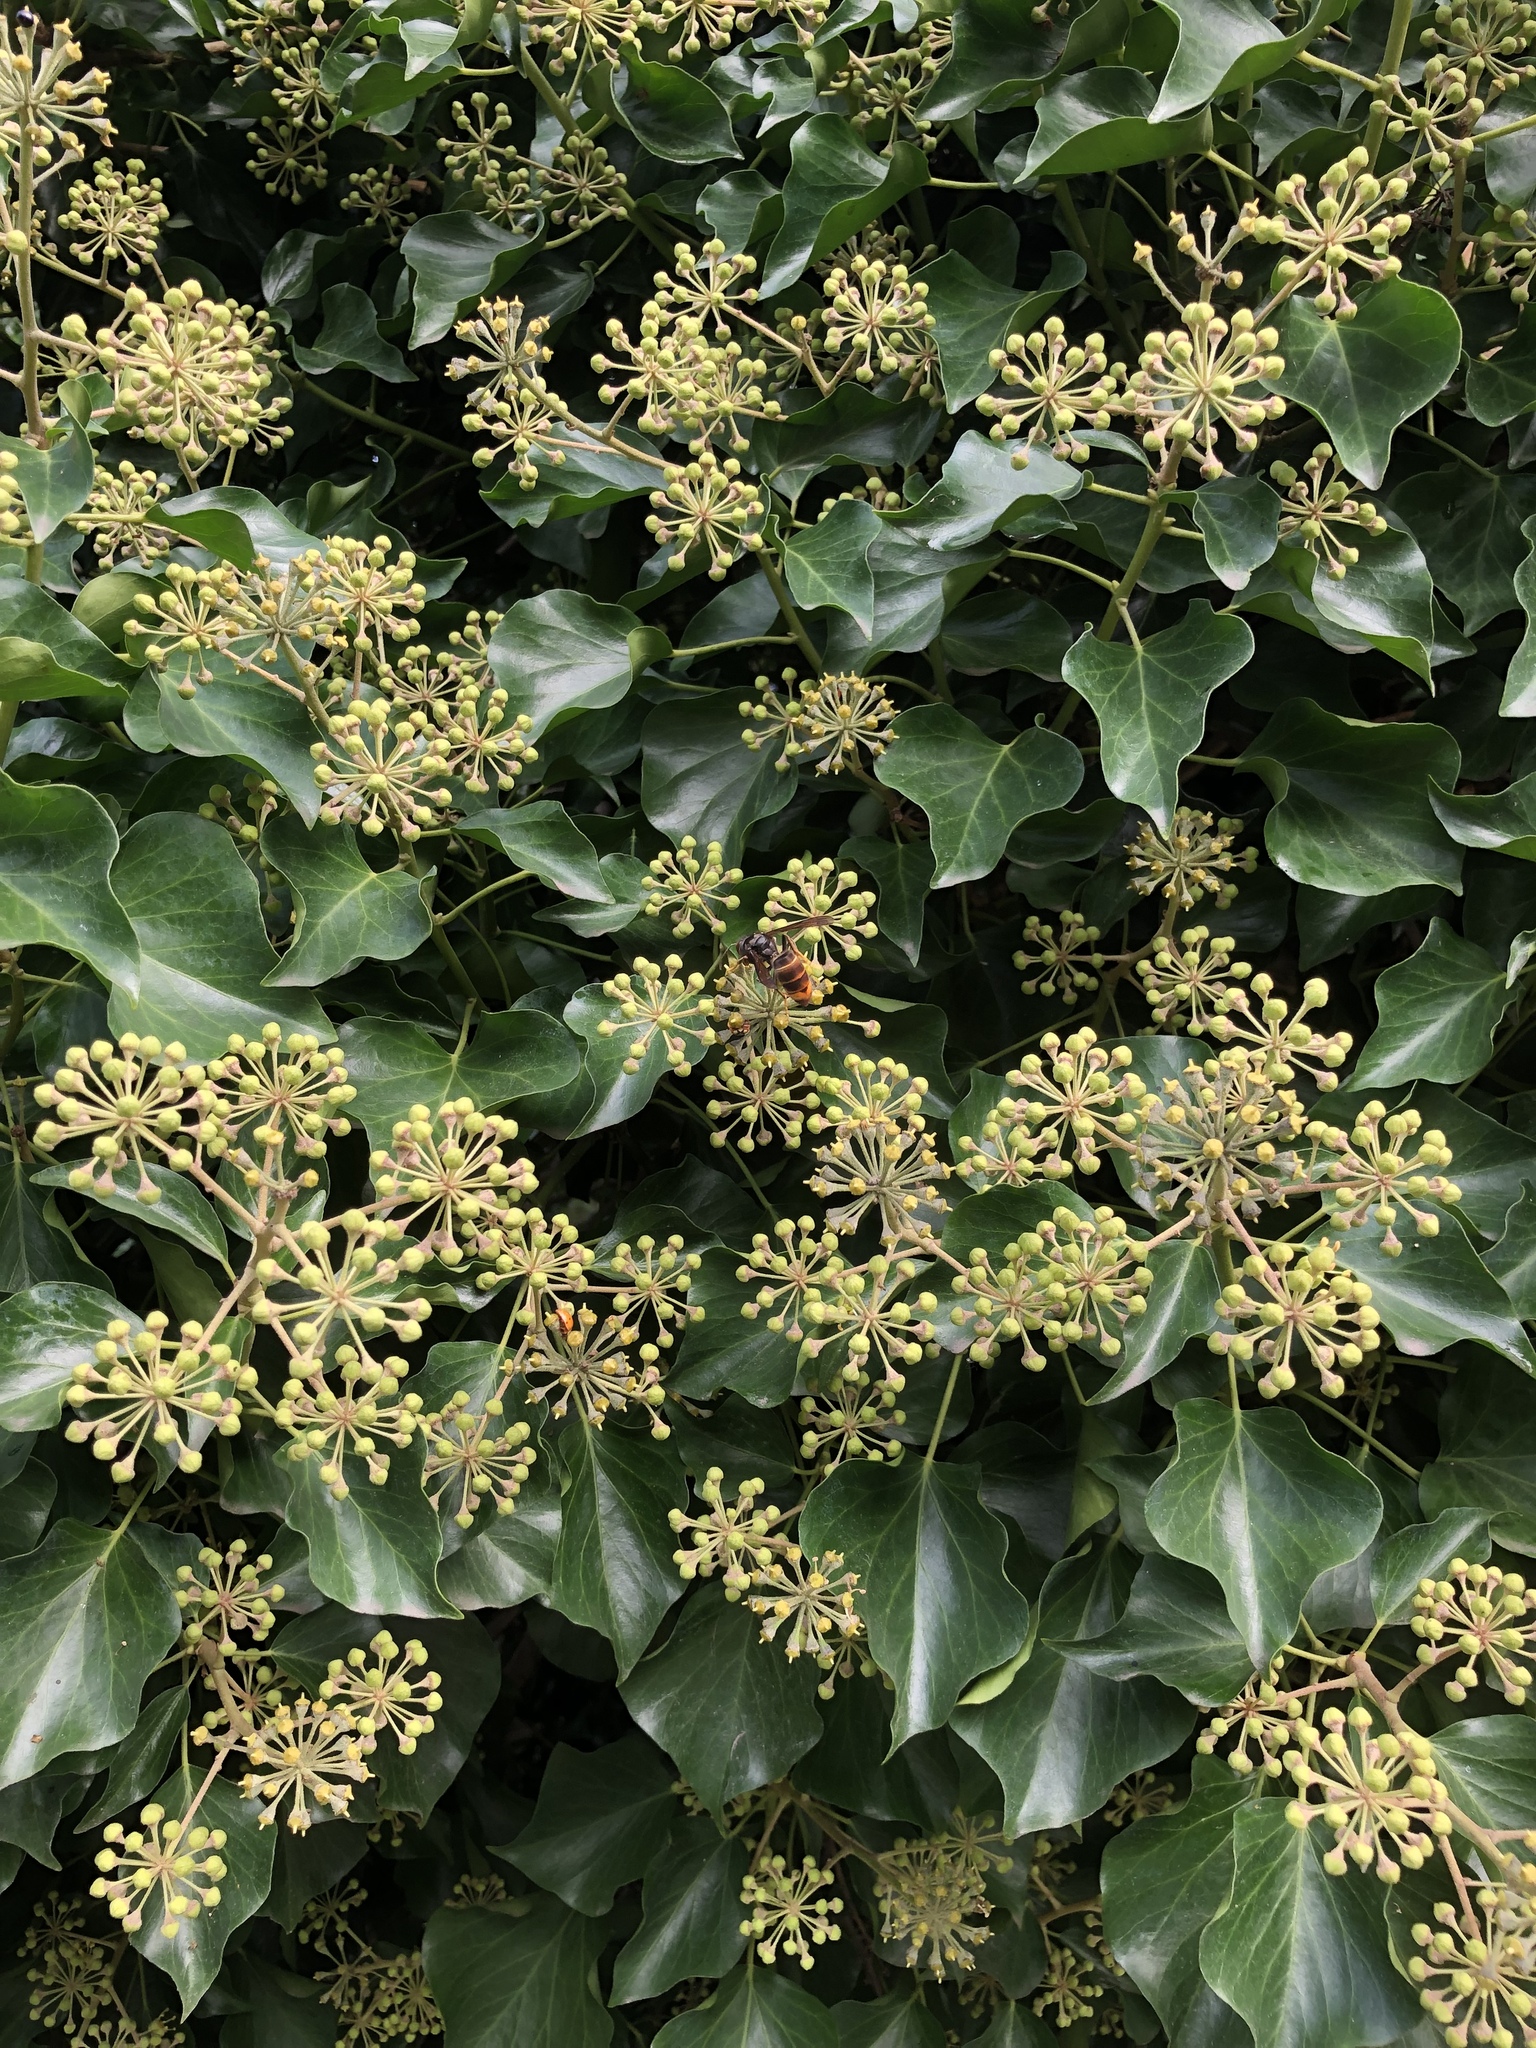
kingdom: Animalia
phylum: Arthropoda
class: Insecta
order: Hymenoptera
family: Vespidae
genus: Vespa
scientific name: Vespa velutina
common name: Asian hornet
